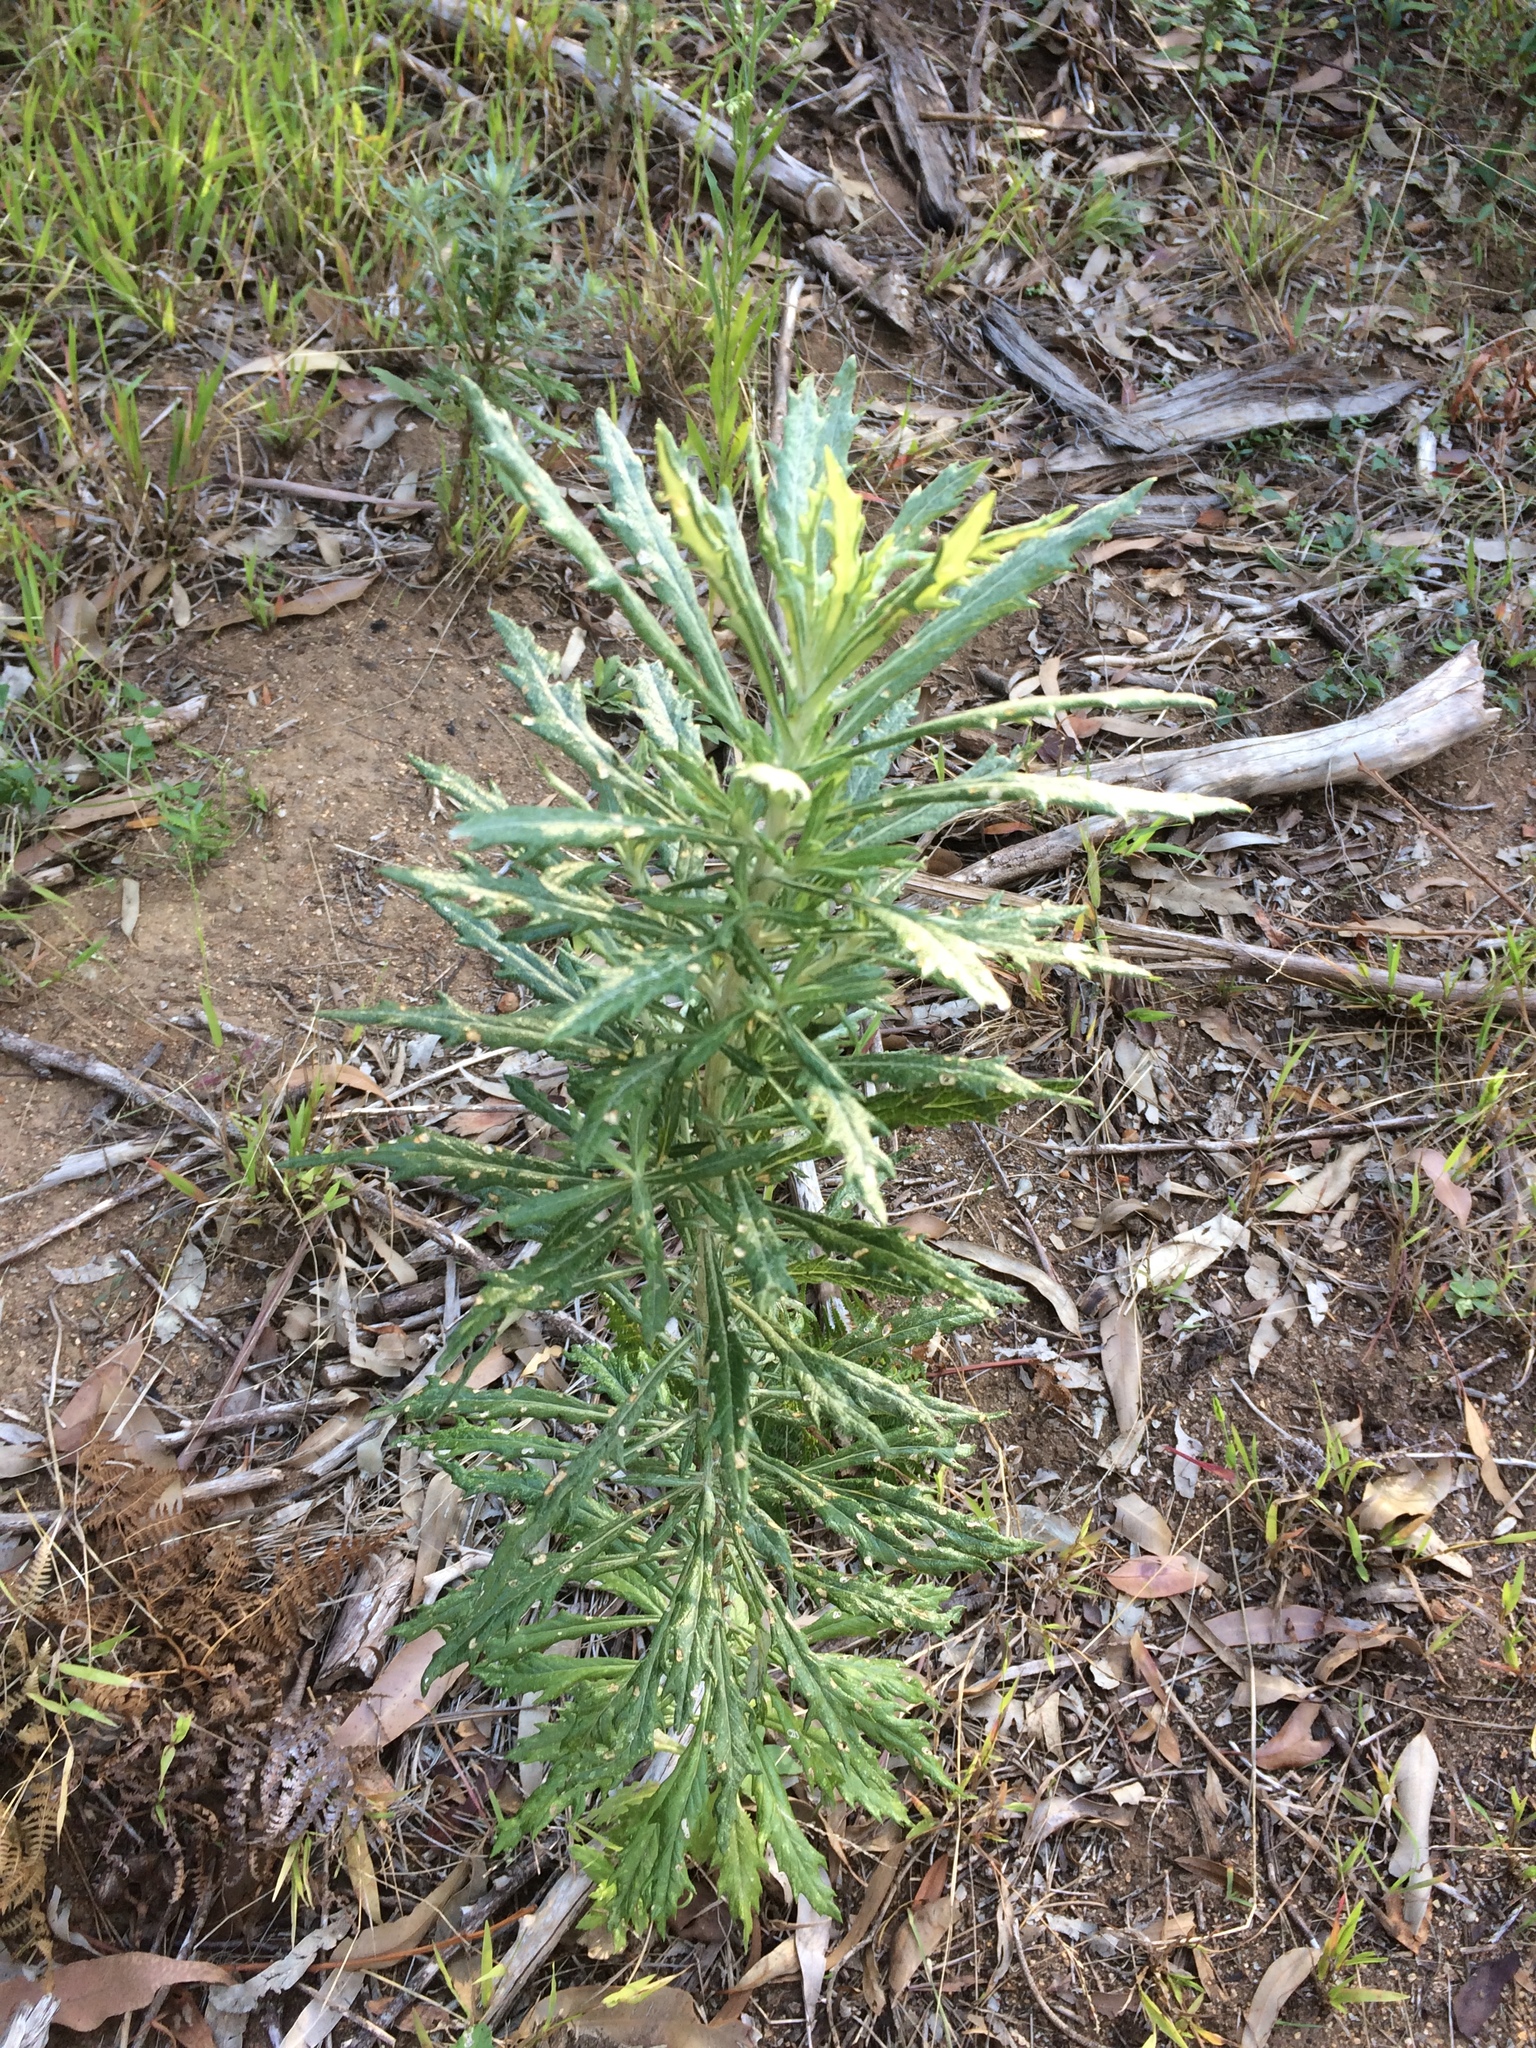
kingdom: Plantae
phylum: Tracheophyta
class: Magnoliopsida
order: Asterales
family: Asteraceae
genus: Senecio
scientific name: Senecio pterophorus
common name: Shoddy ragwort
